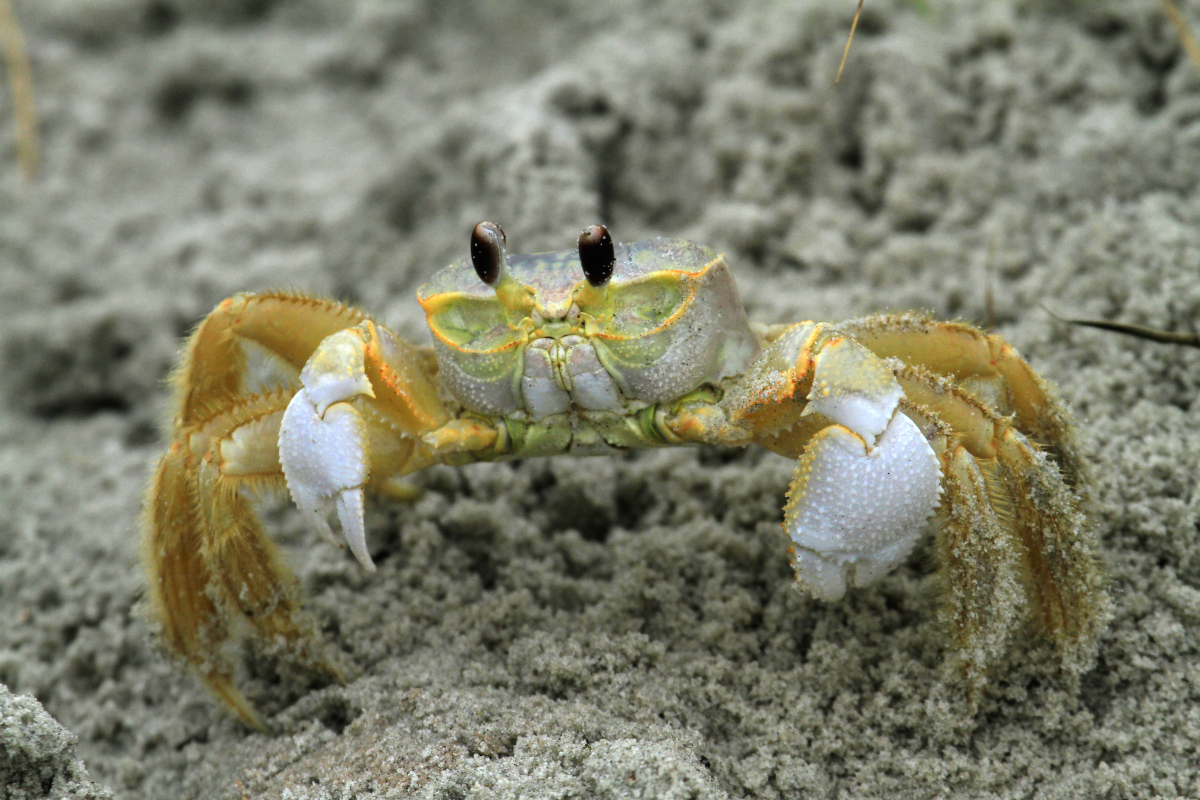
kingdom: Animalia
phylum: Arthropoda
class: Malacostraca
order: Decapoda
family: Ocypodidae
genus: Ocypode
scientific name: Ocypode quadrata
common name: Ghost crab
